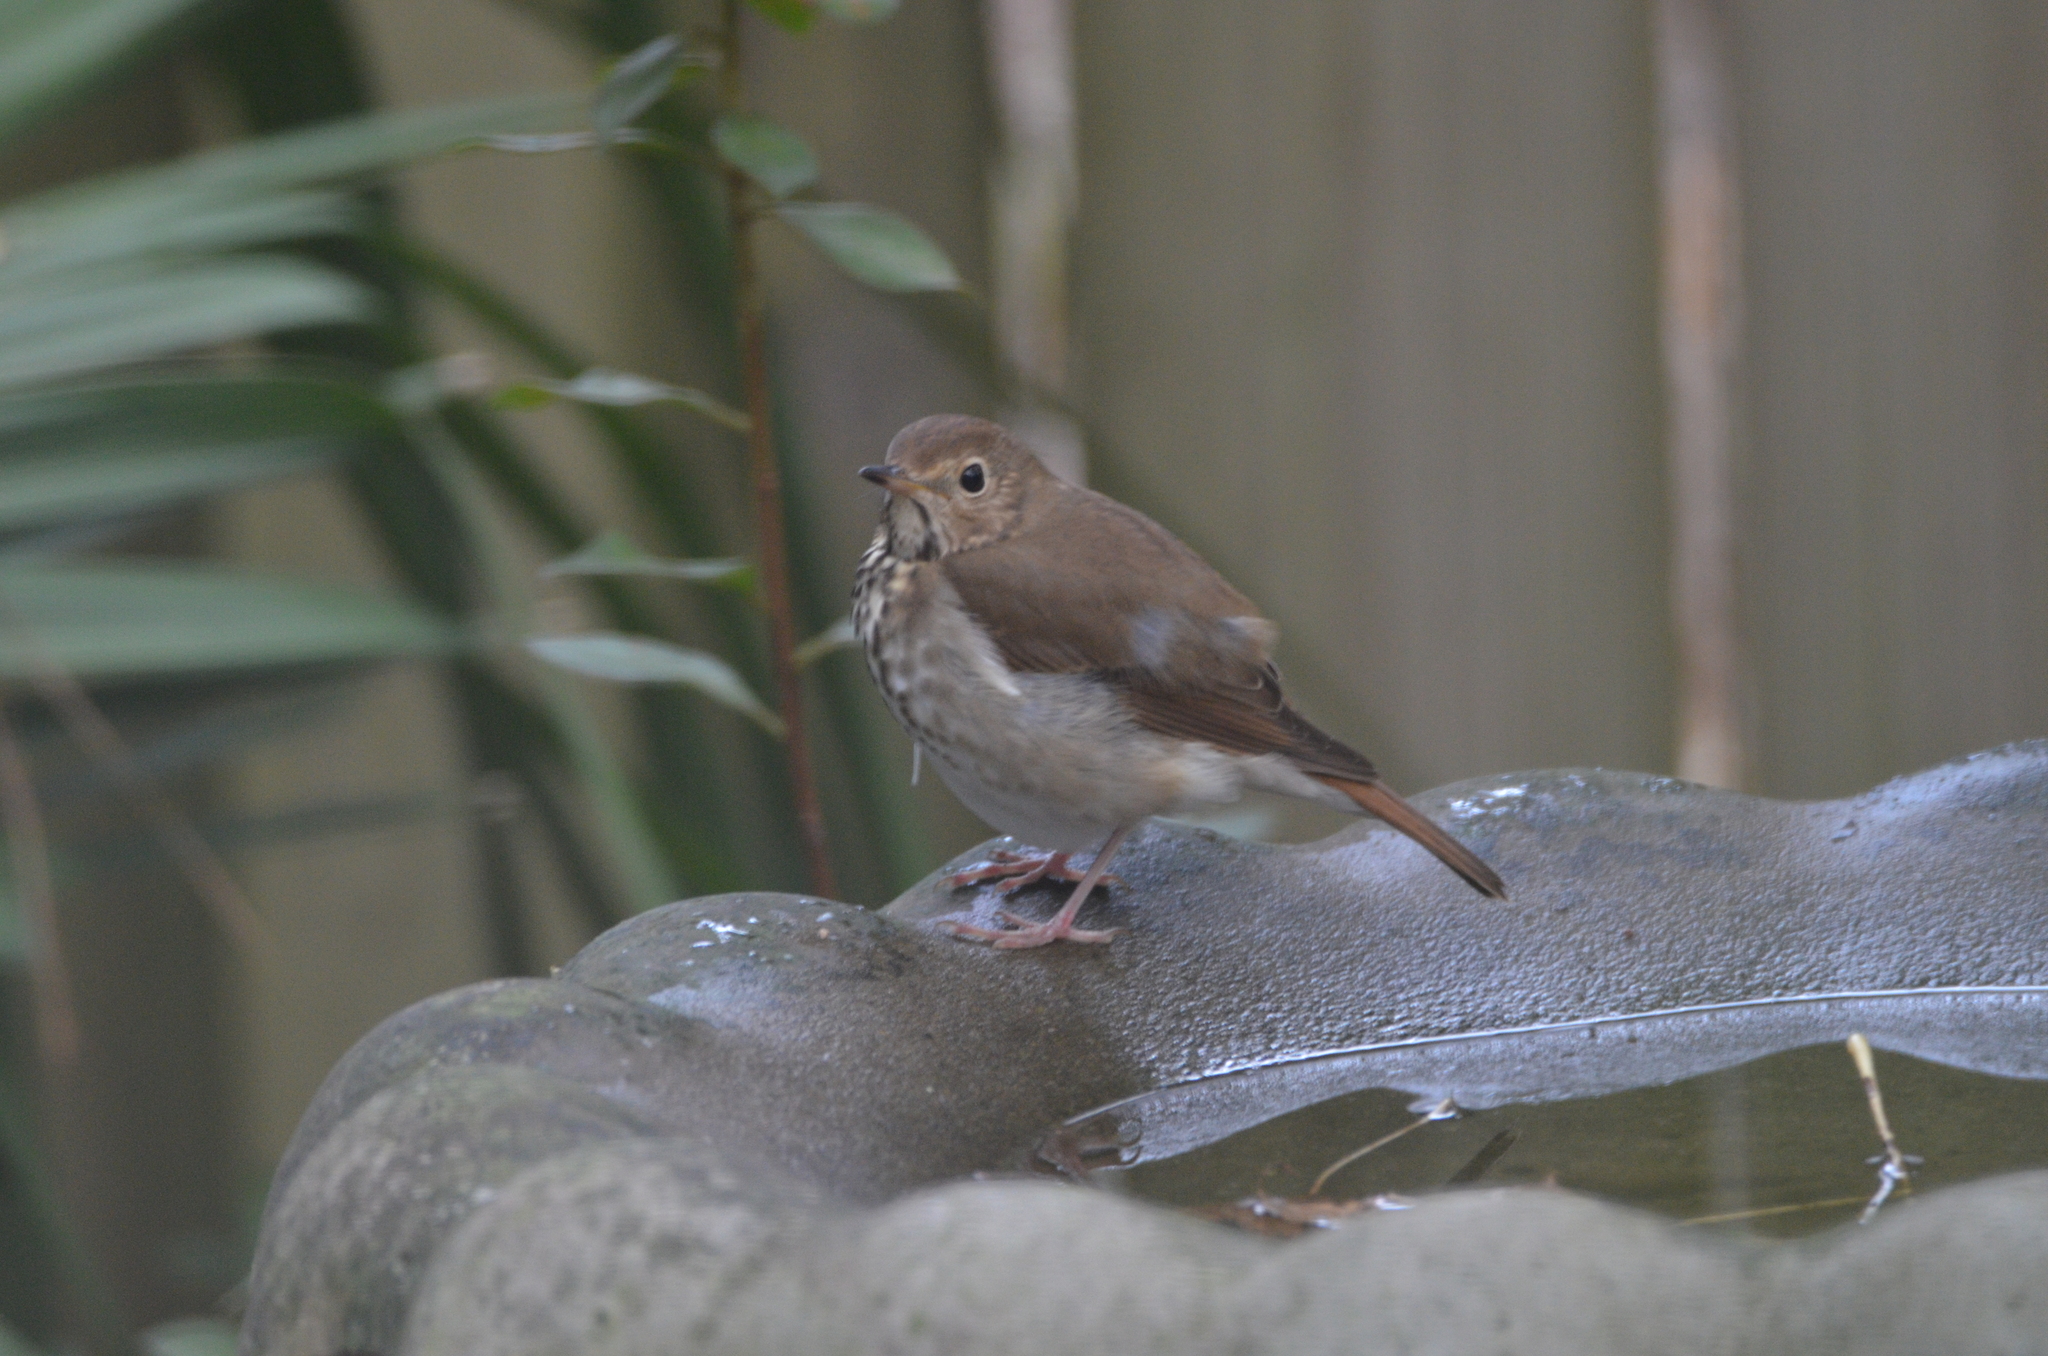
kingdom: Animalia
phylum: Chordata
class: Aves
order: Passeriformes
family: Turdidae
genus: Catharus
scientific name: Catharus guttatus
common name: Hermit thrush
